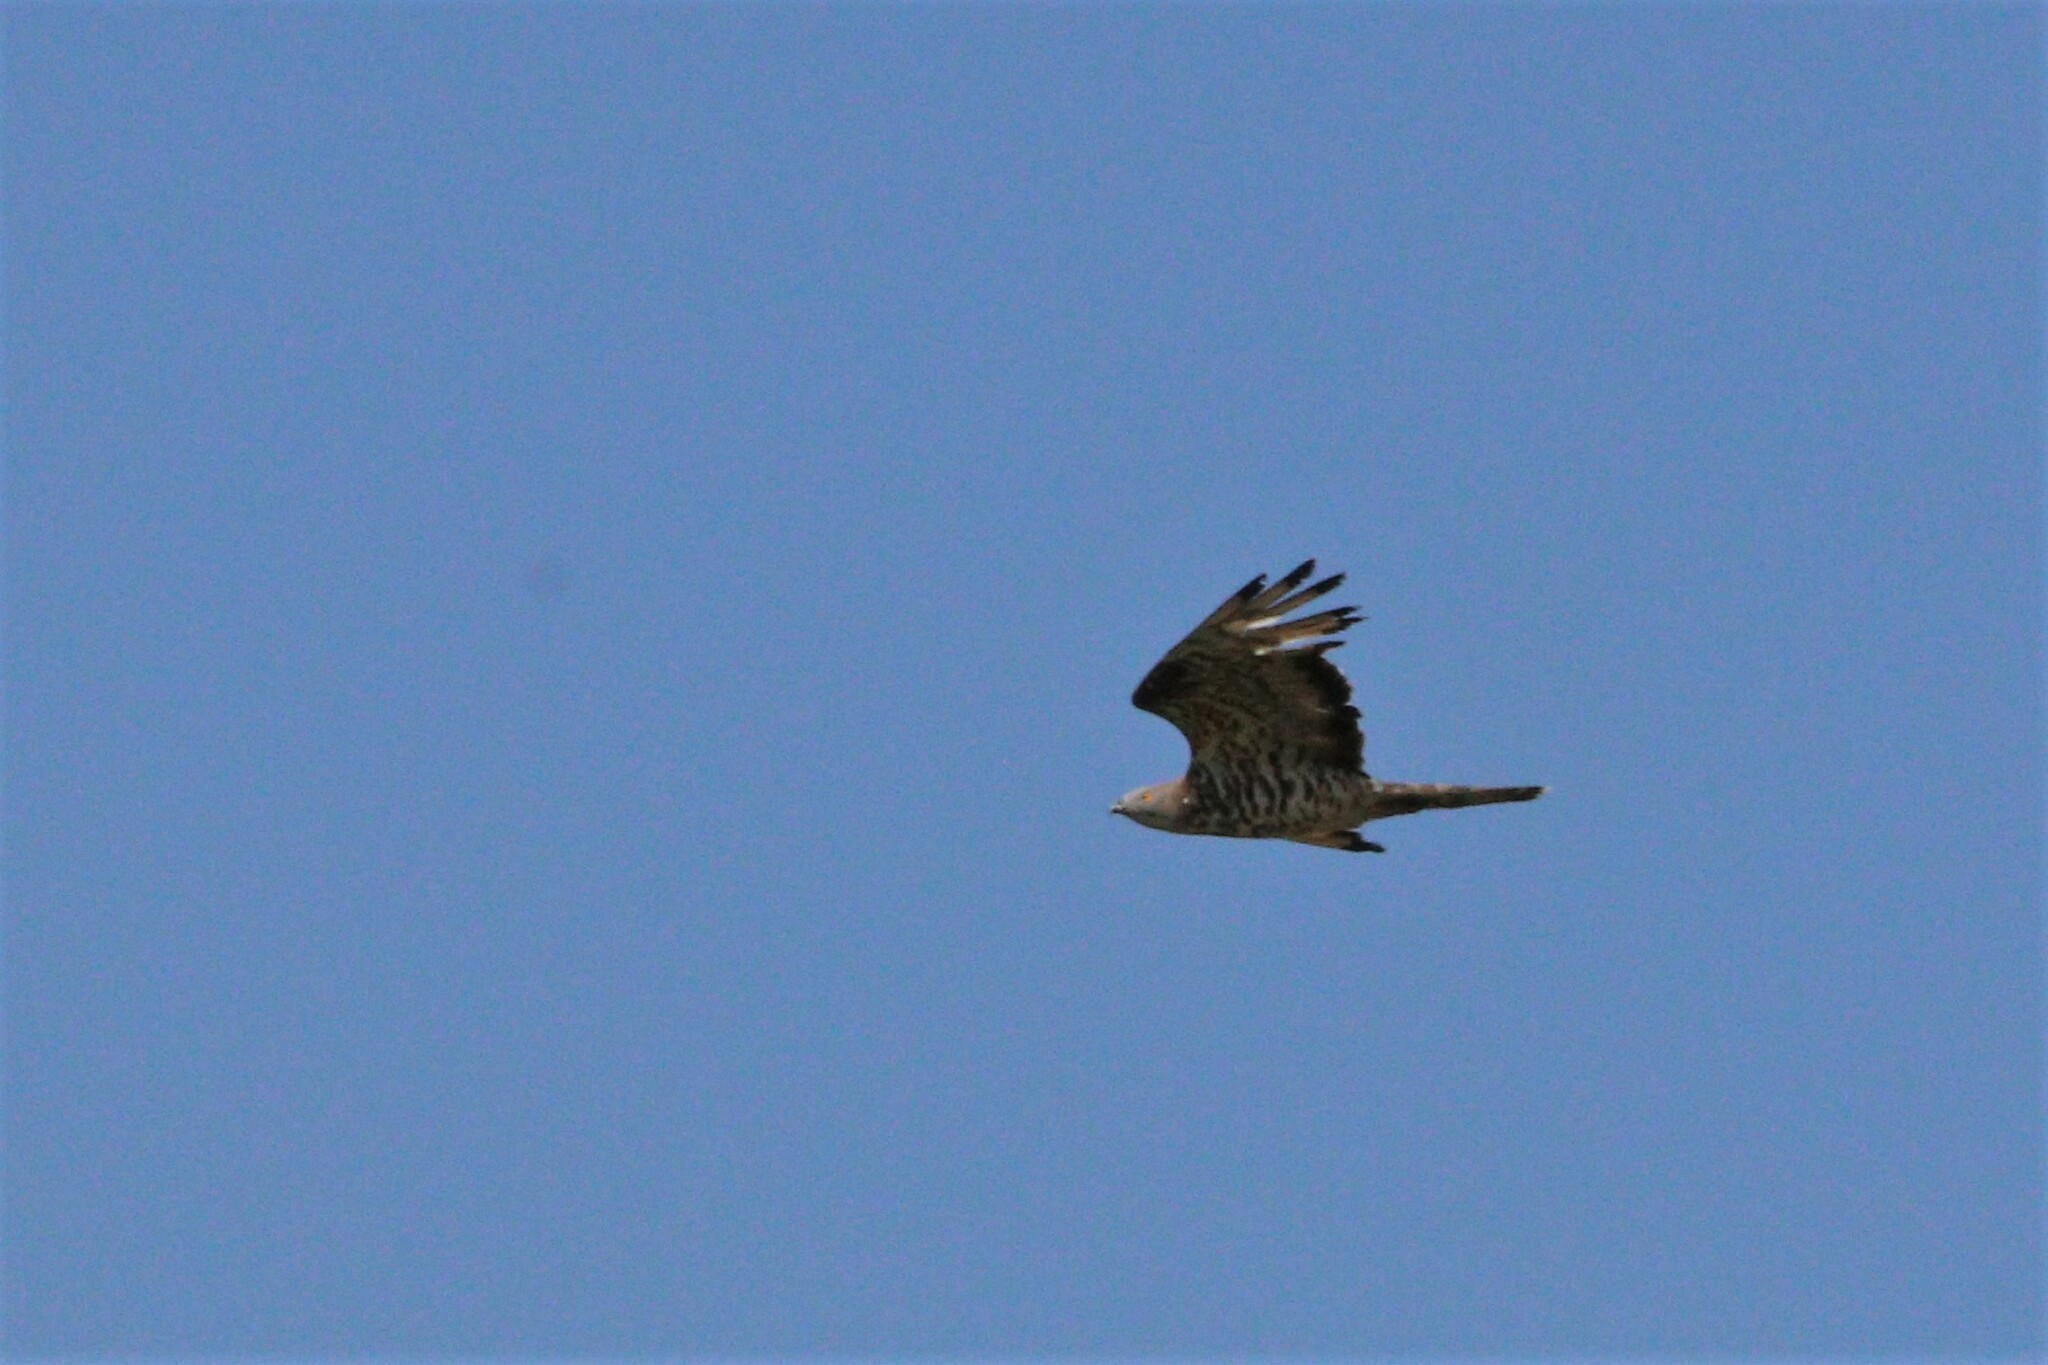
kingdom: Animalia
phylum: Chordata
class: Aves
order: Accipitriformes
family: Accipitridae
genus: Pernis
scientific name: Pernis apivorus
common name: European honey buzzard
